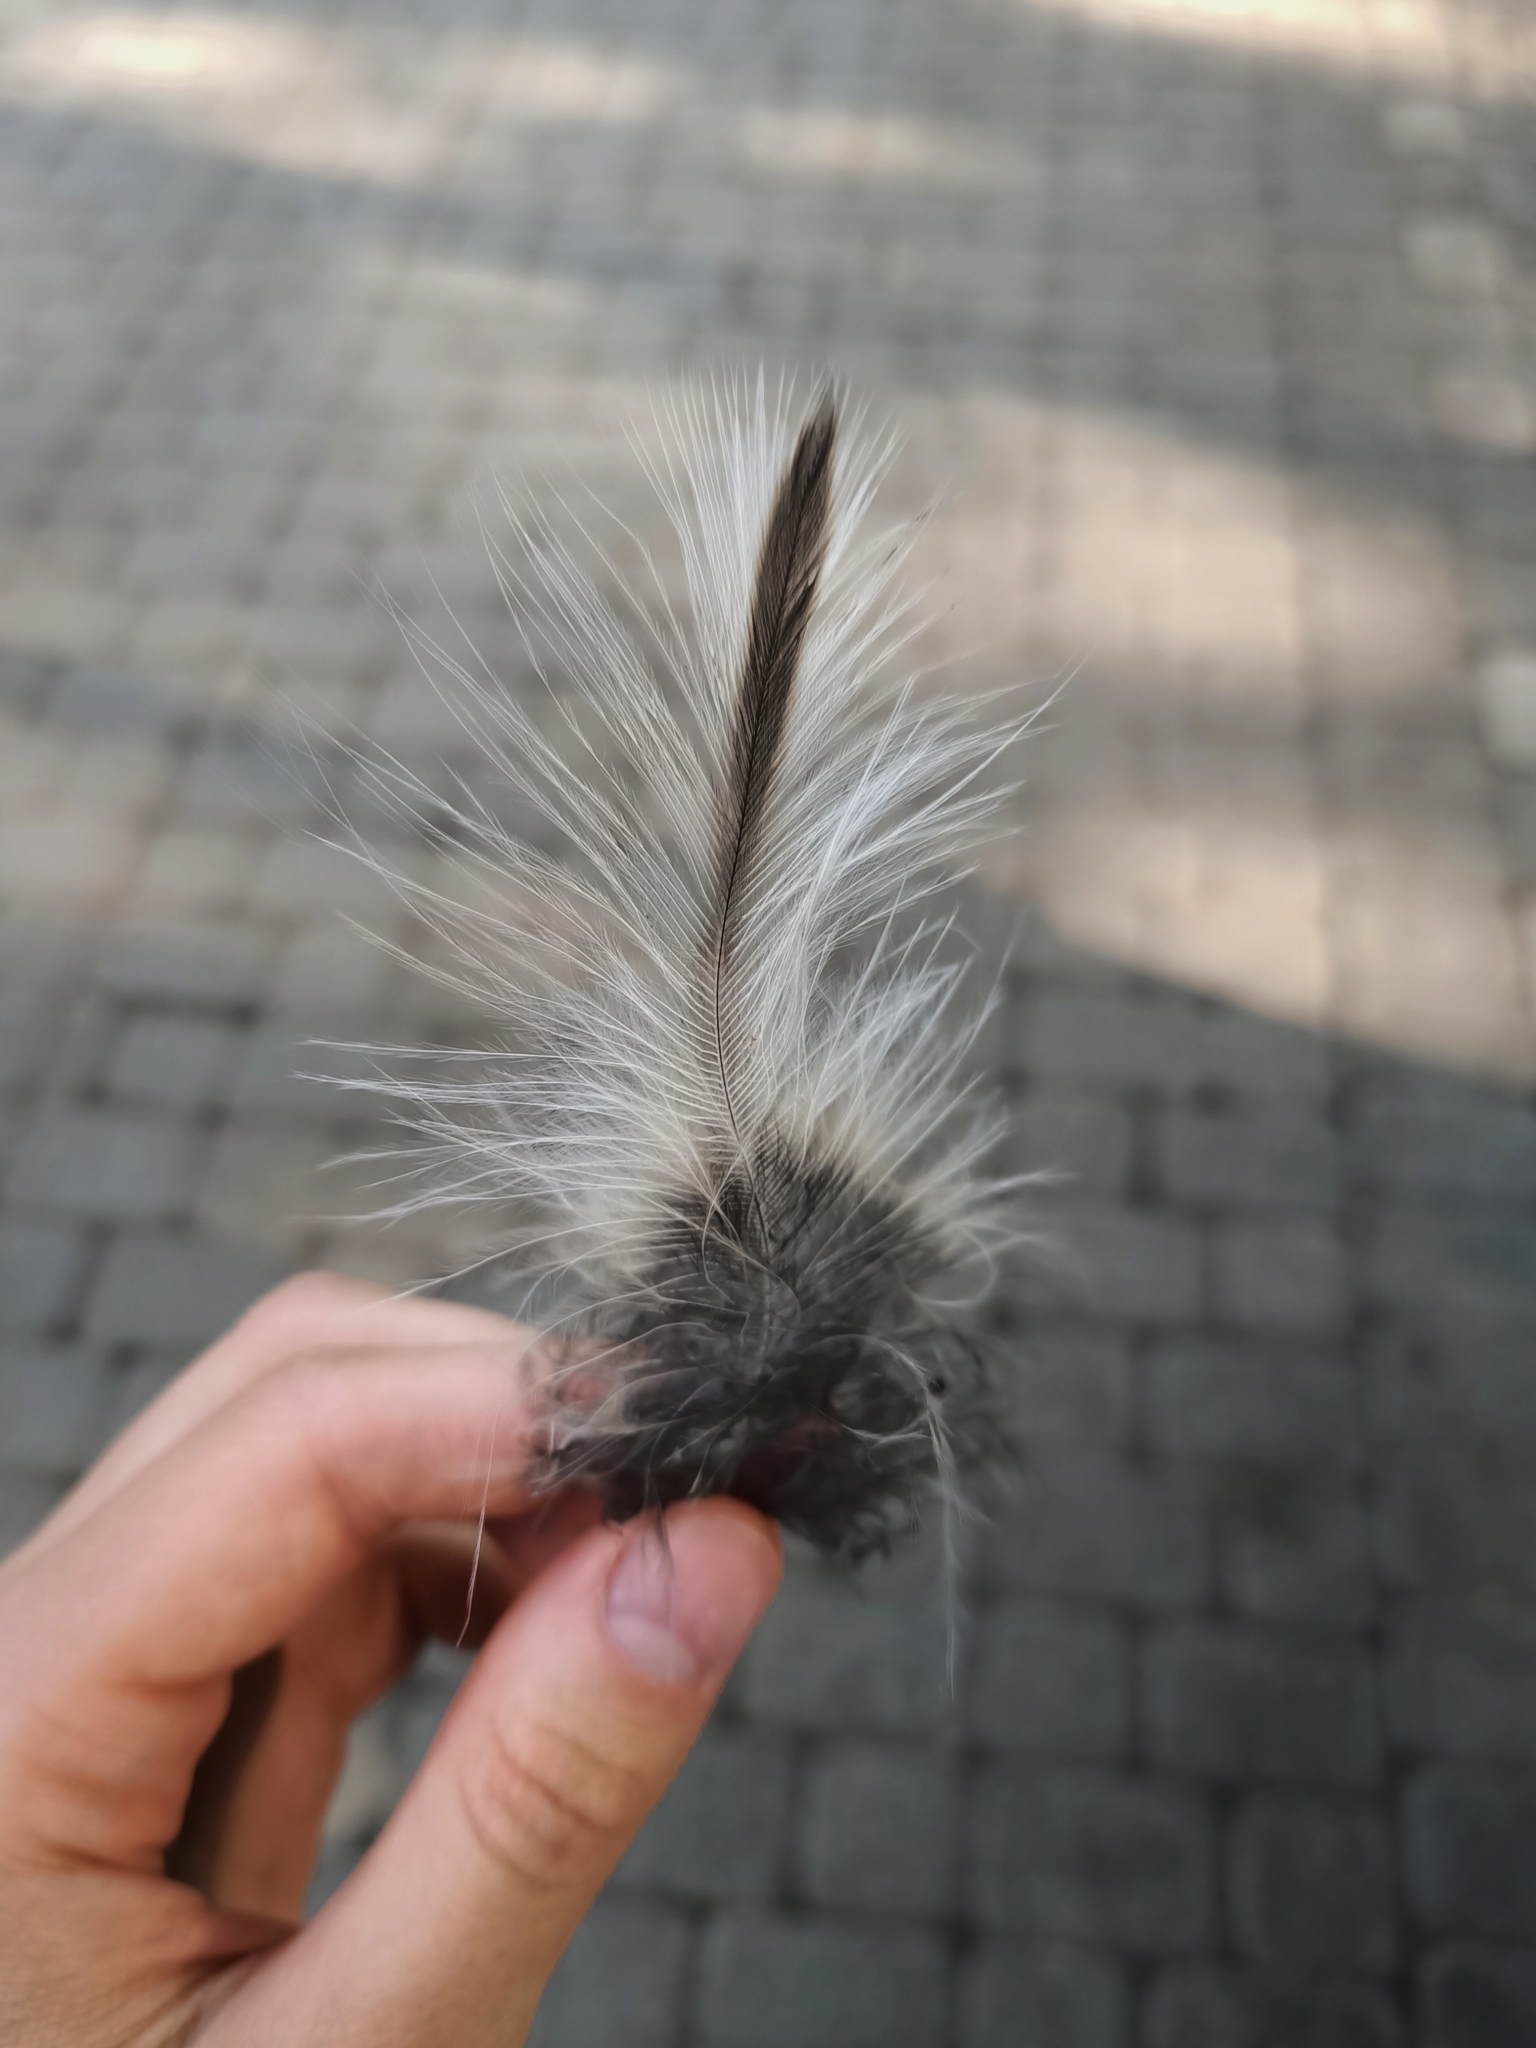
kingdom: Animalia
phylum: Chordata
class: Aves
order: Strigiformes
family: Strigidae
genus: Strix
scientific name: Strix uralensis
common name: Ural owl
